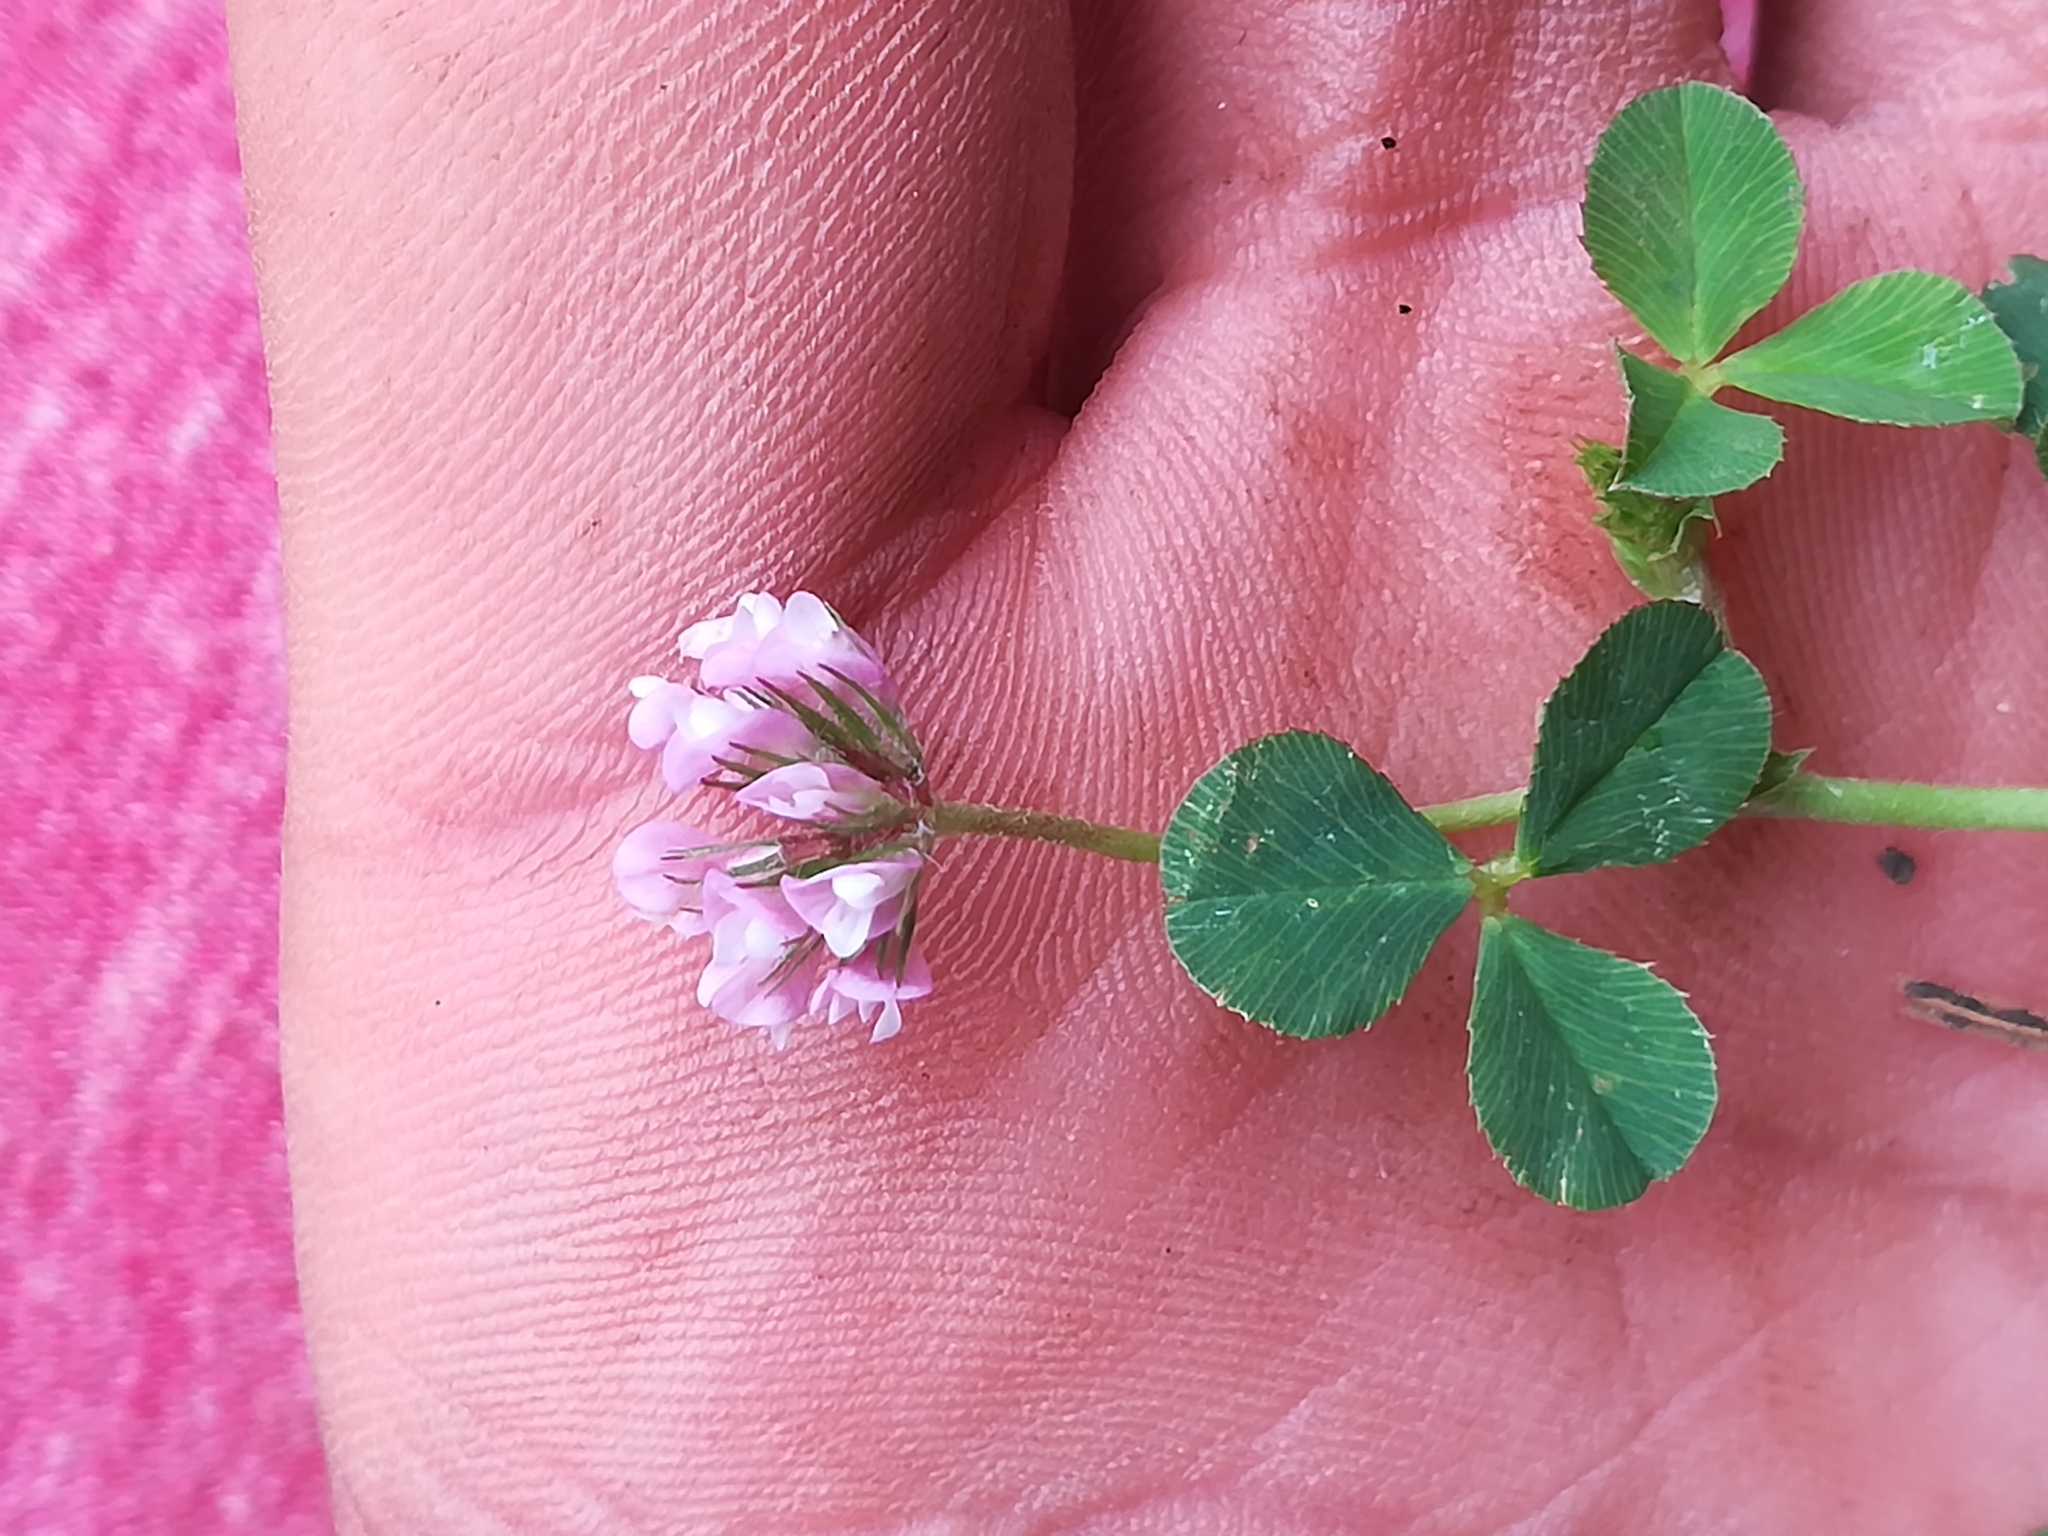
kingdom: Plantae
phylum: Tracheophyta
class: Magnoliopsida
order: Fabales
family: Fabaceae
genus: Trifolium
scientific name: Trifolium amabile
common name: Aztec clover
